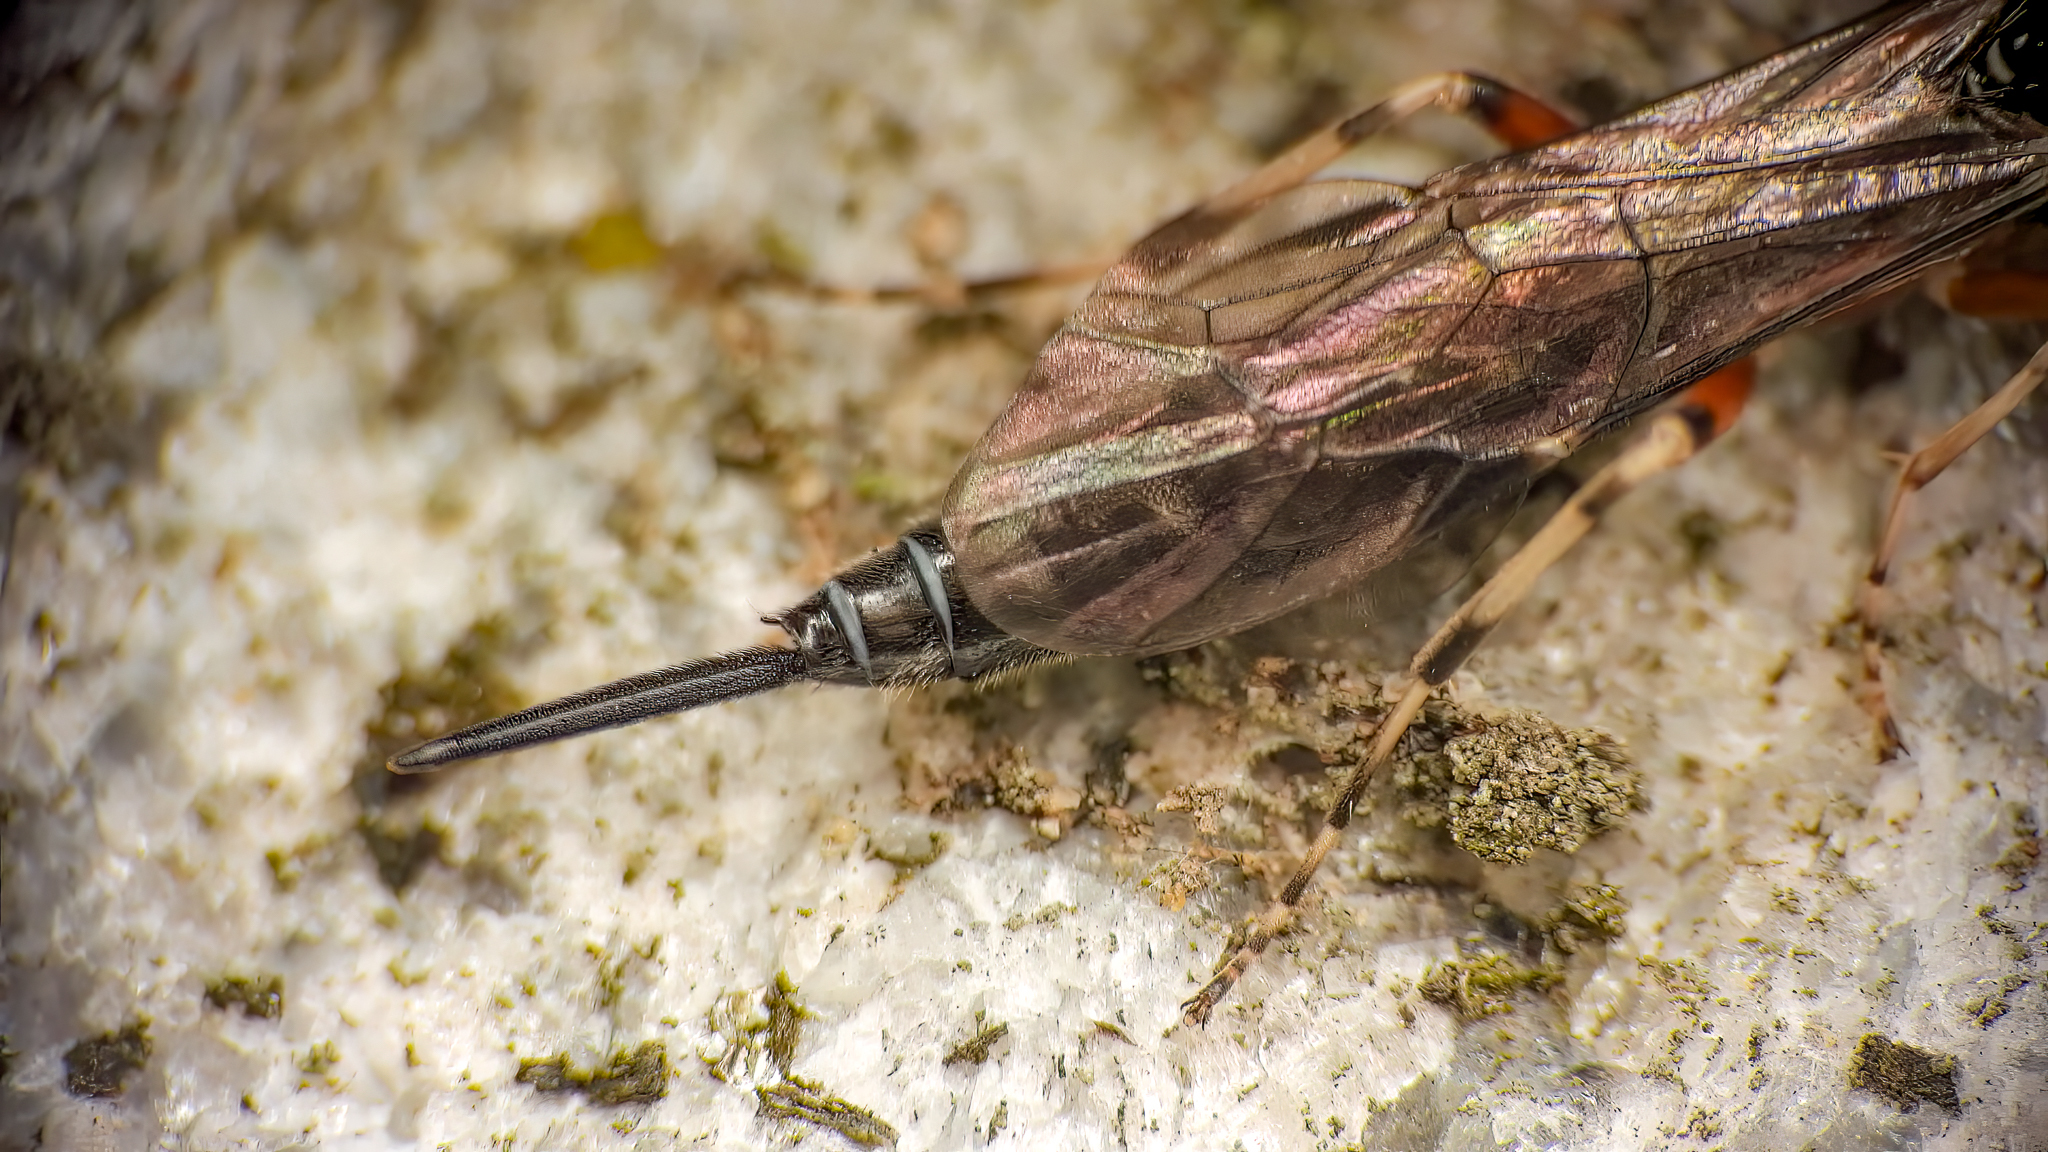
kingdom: Animalia
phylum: Arthropoda
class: Insecta
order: Hymenoptera
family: Ichneumonidae
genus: Tromatobia
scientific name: Tromatobia ovivora
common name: Parasitoid wasp
